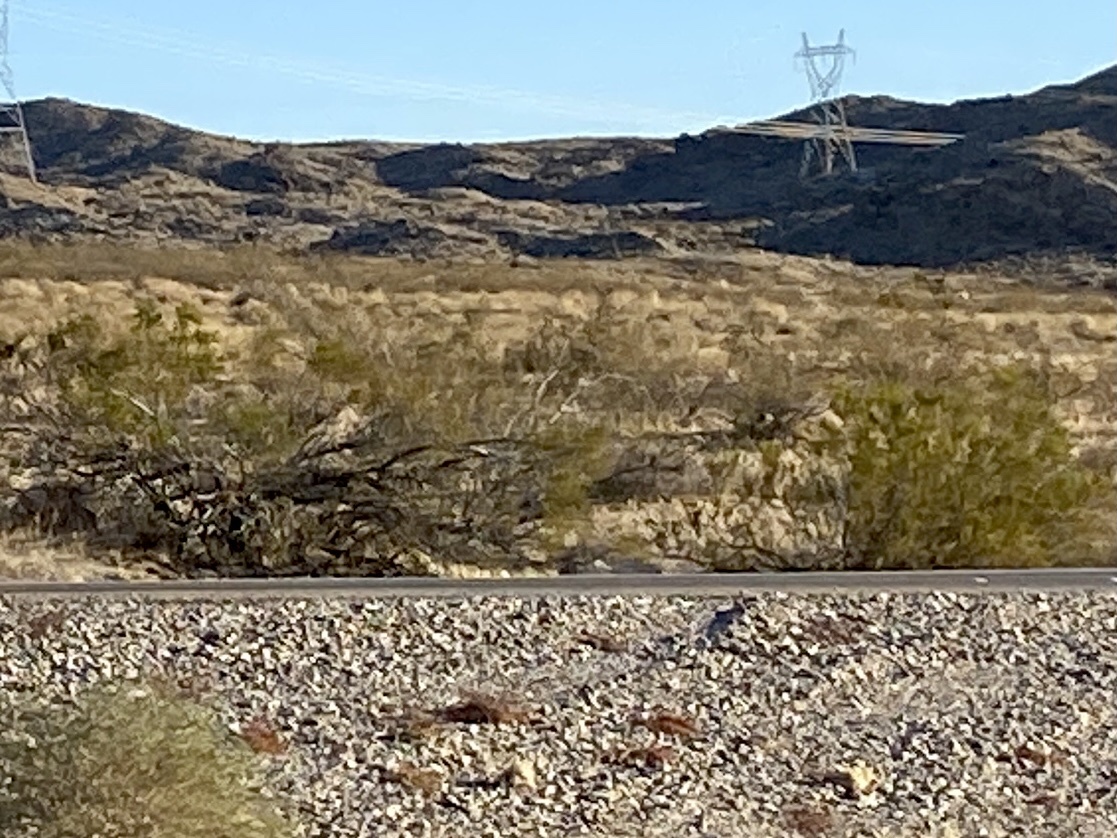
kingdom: Plantae
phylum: Tracheophyta
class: Magnoliopsida
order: Zygophyllales
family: Zygophyllaceae
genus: Larrea
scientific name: Larrea tridentata
